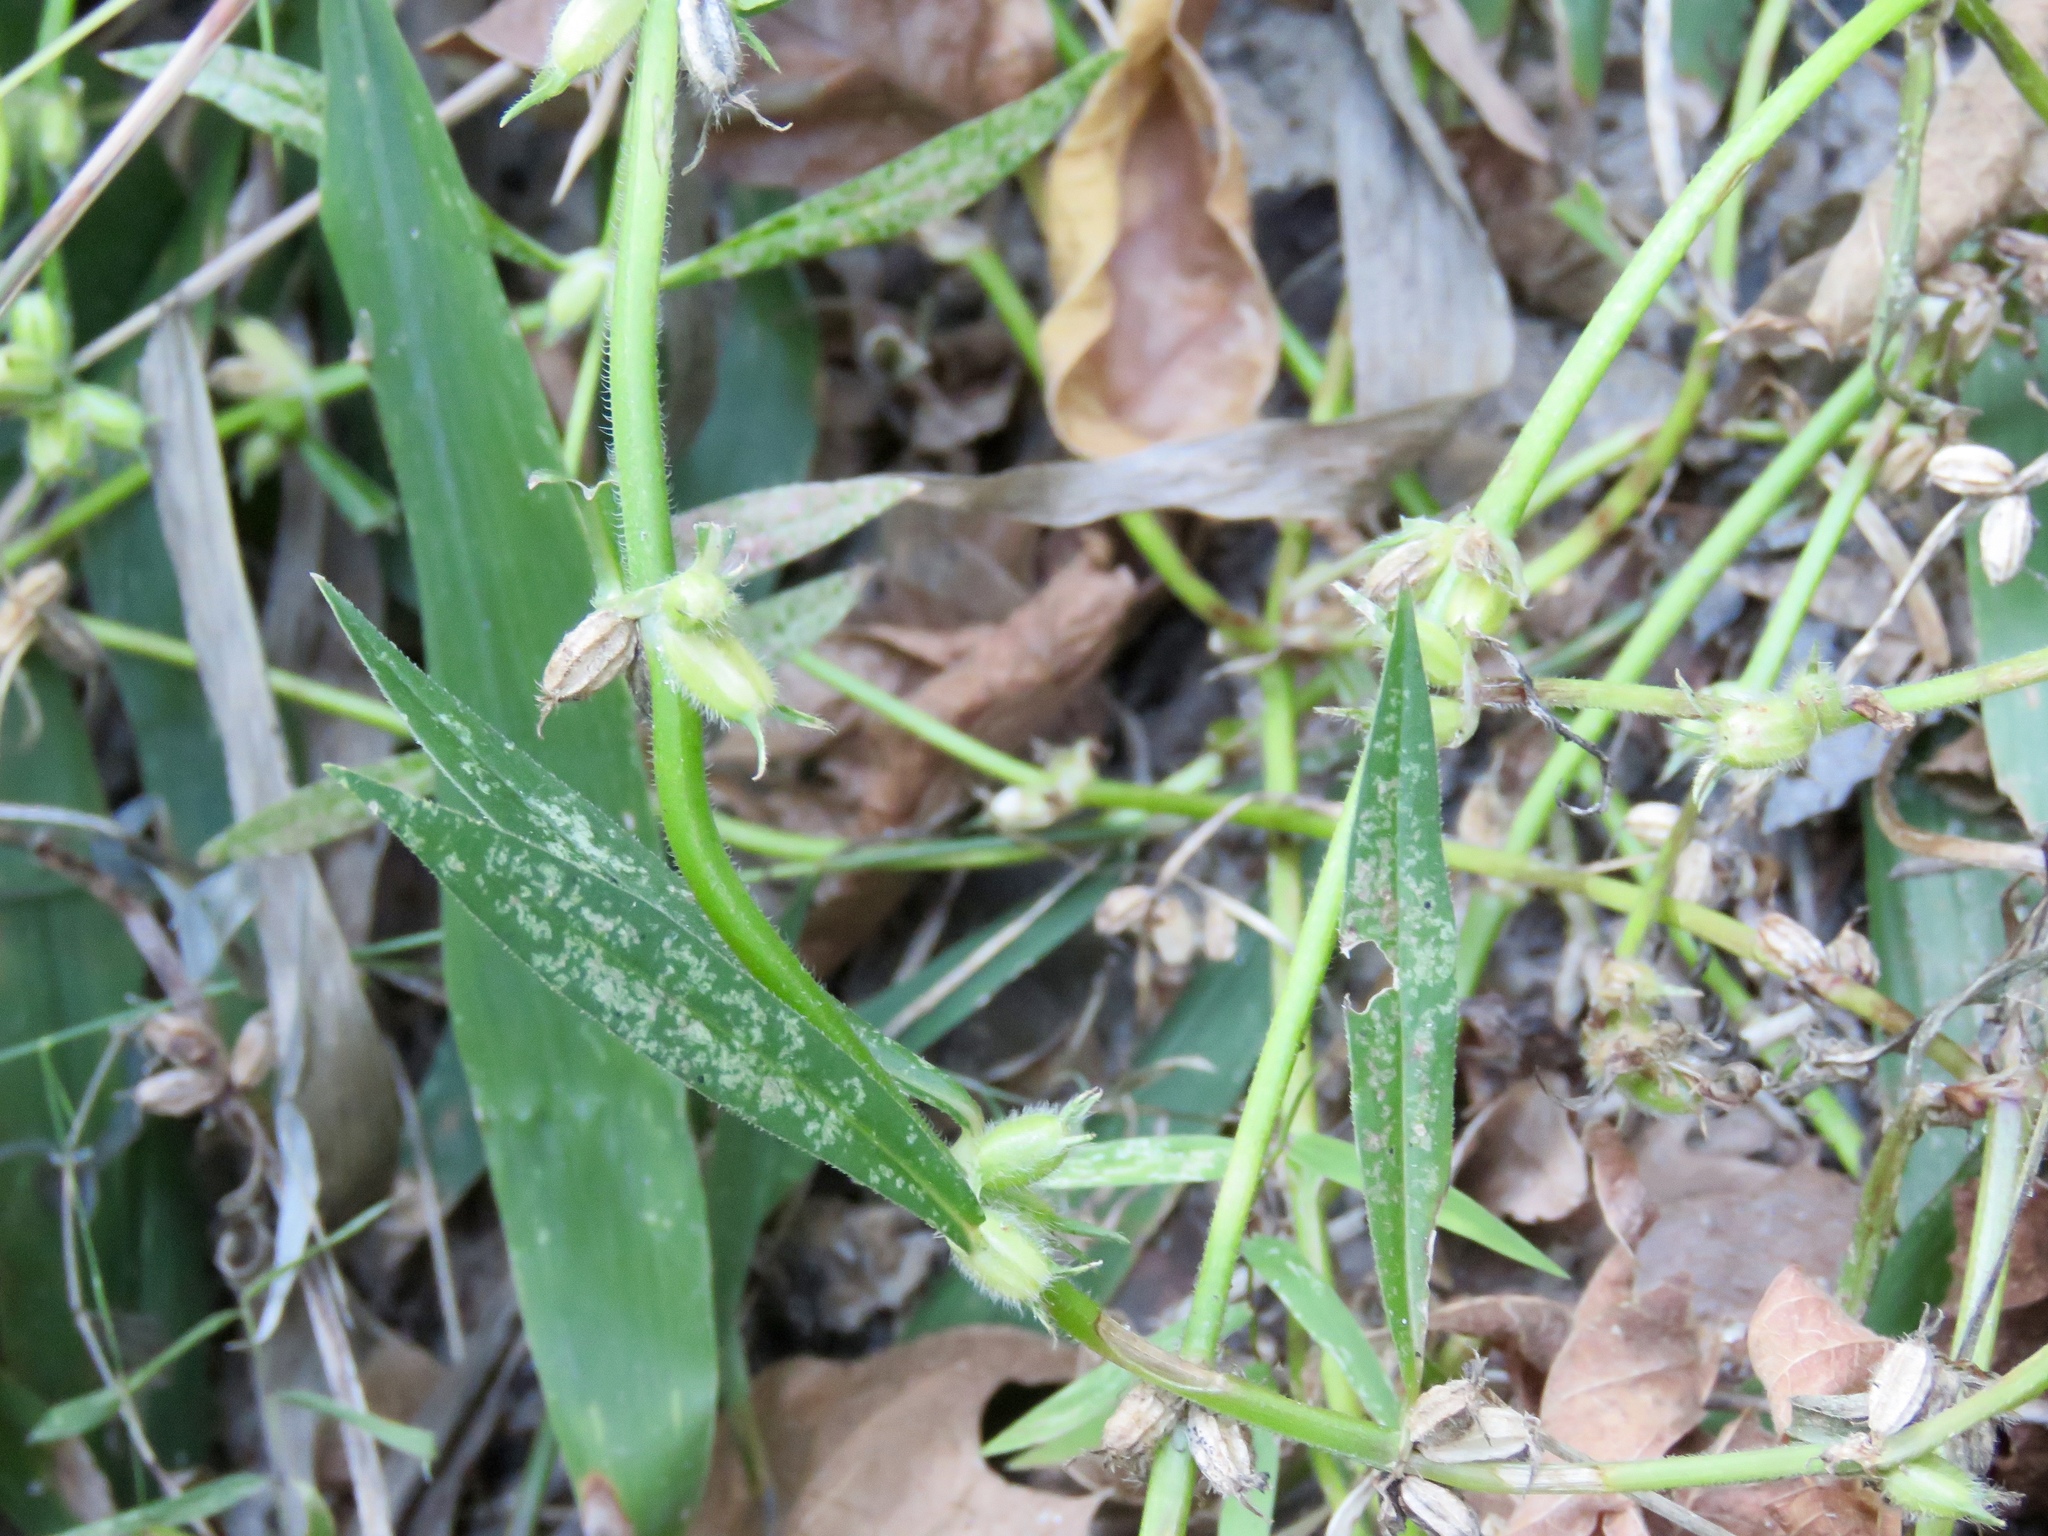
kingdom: Plantae
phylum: Tracheophyta
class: Magnoliopsida
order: Gentianales
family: Rubiaceae
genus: Diodia
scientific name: Diodia virginiana
